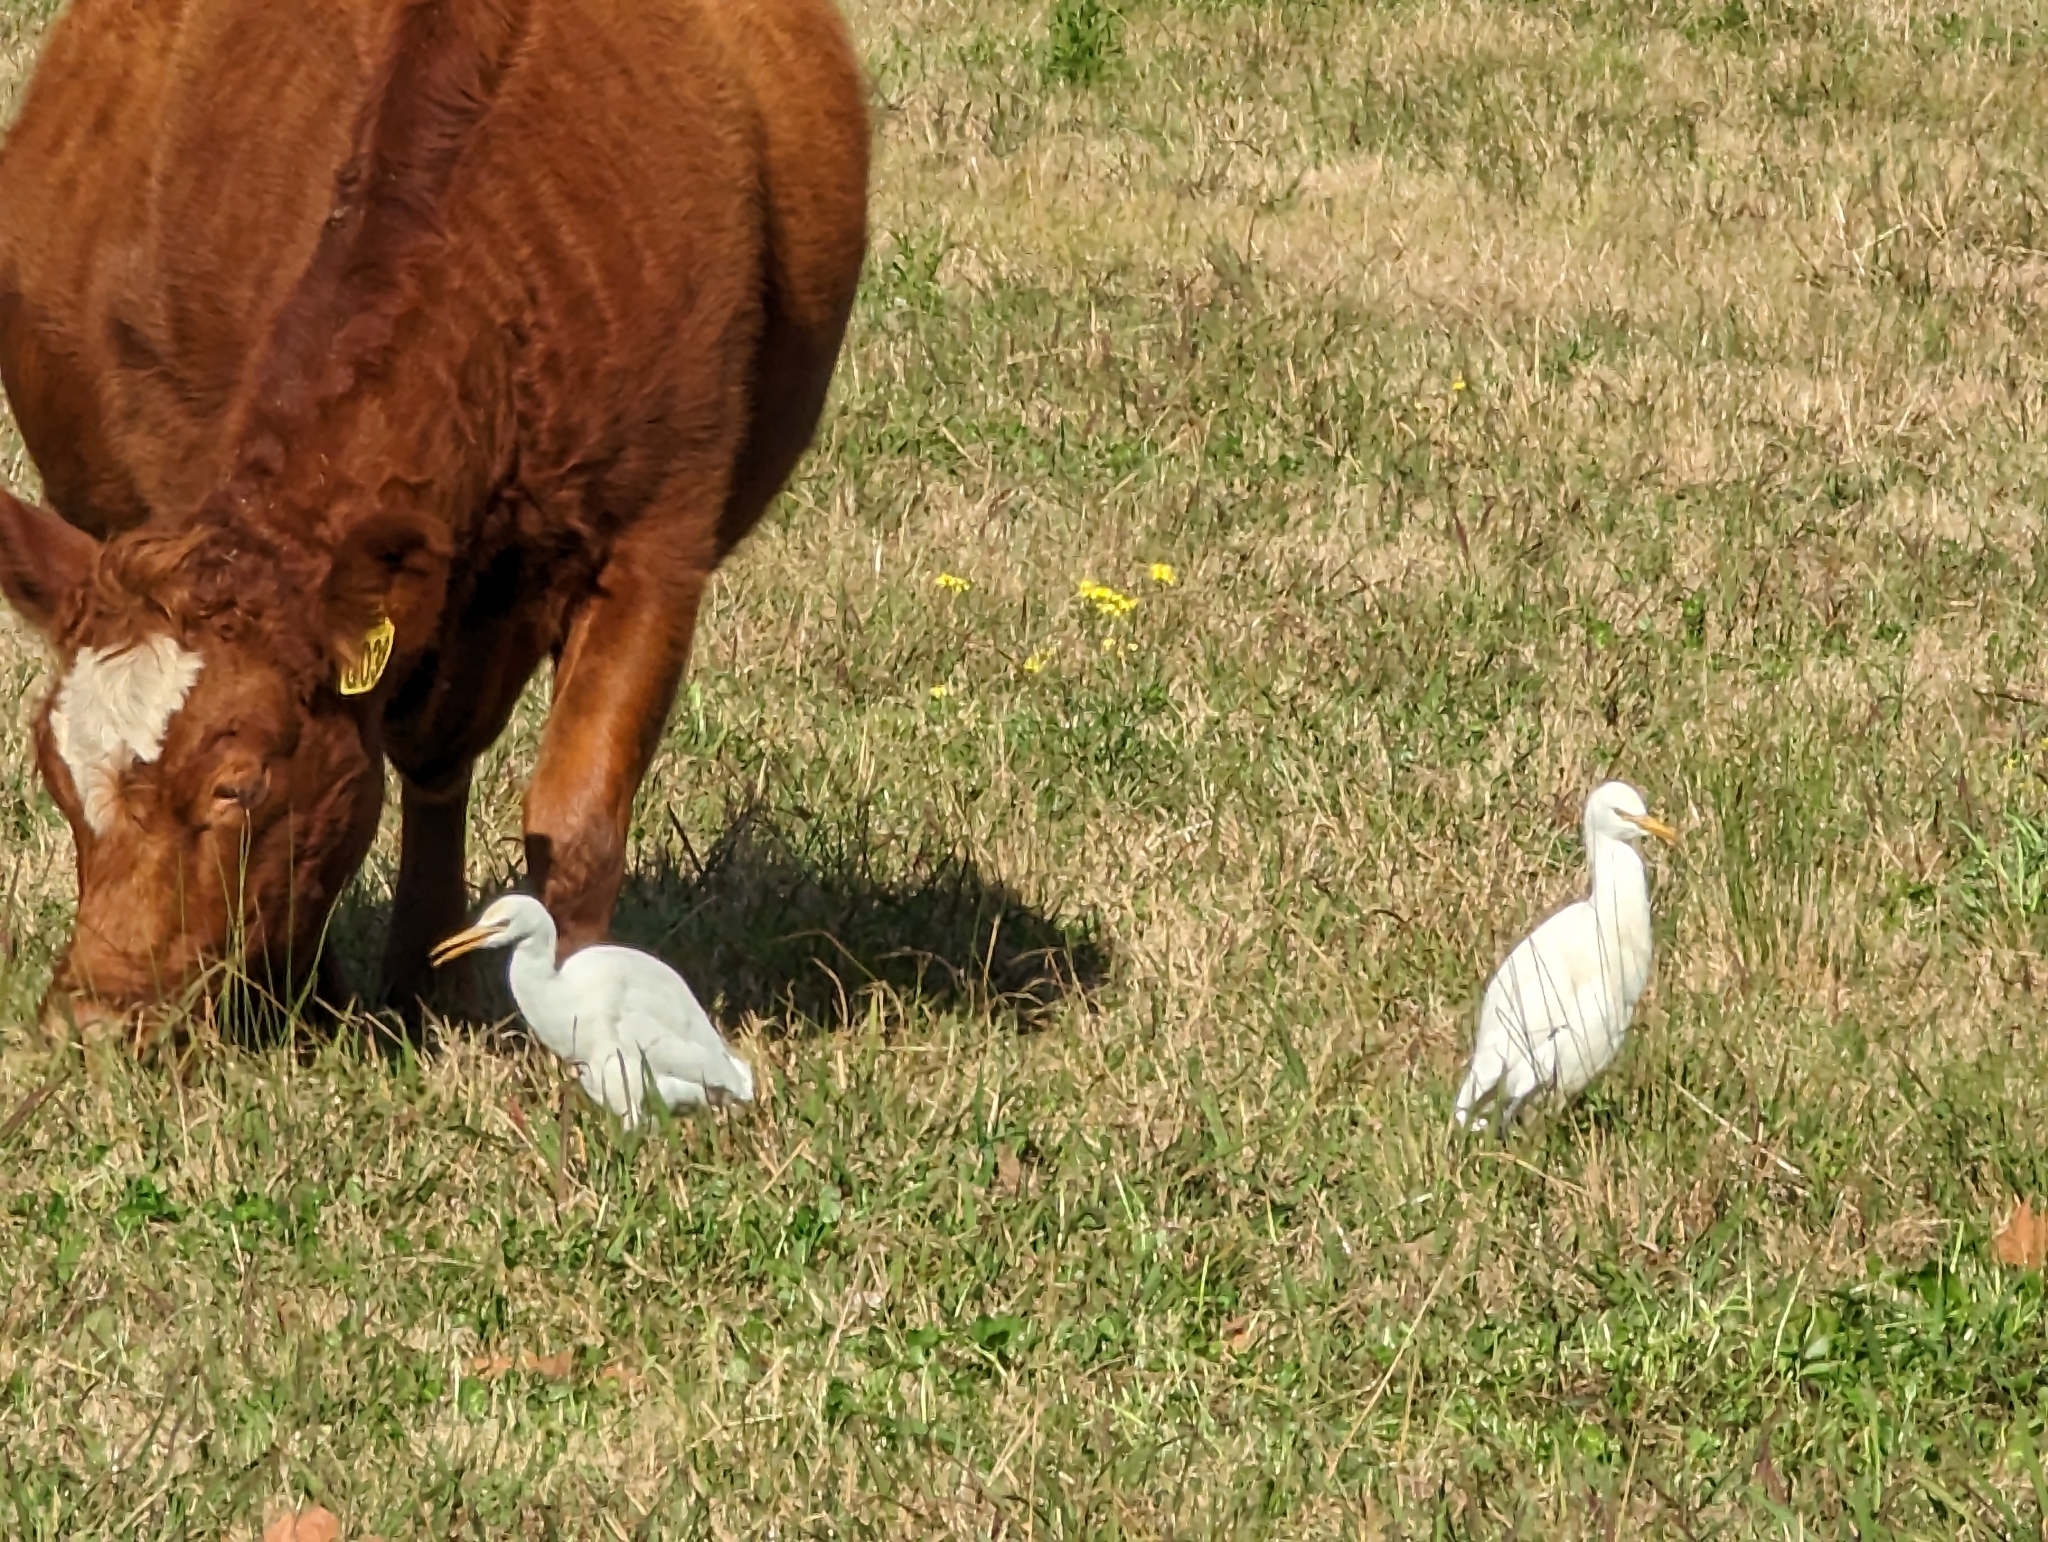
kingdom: Animalia
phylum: Chordata
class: Aves
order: Pelecaniformes
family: Ardeidae
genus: Bubulcus
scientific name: Bubulcus coromandus
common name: Eastern cattle egret
